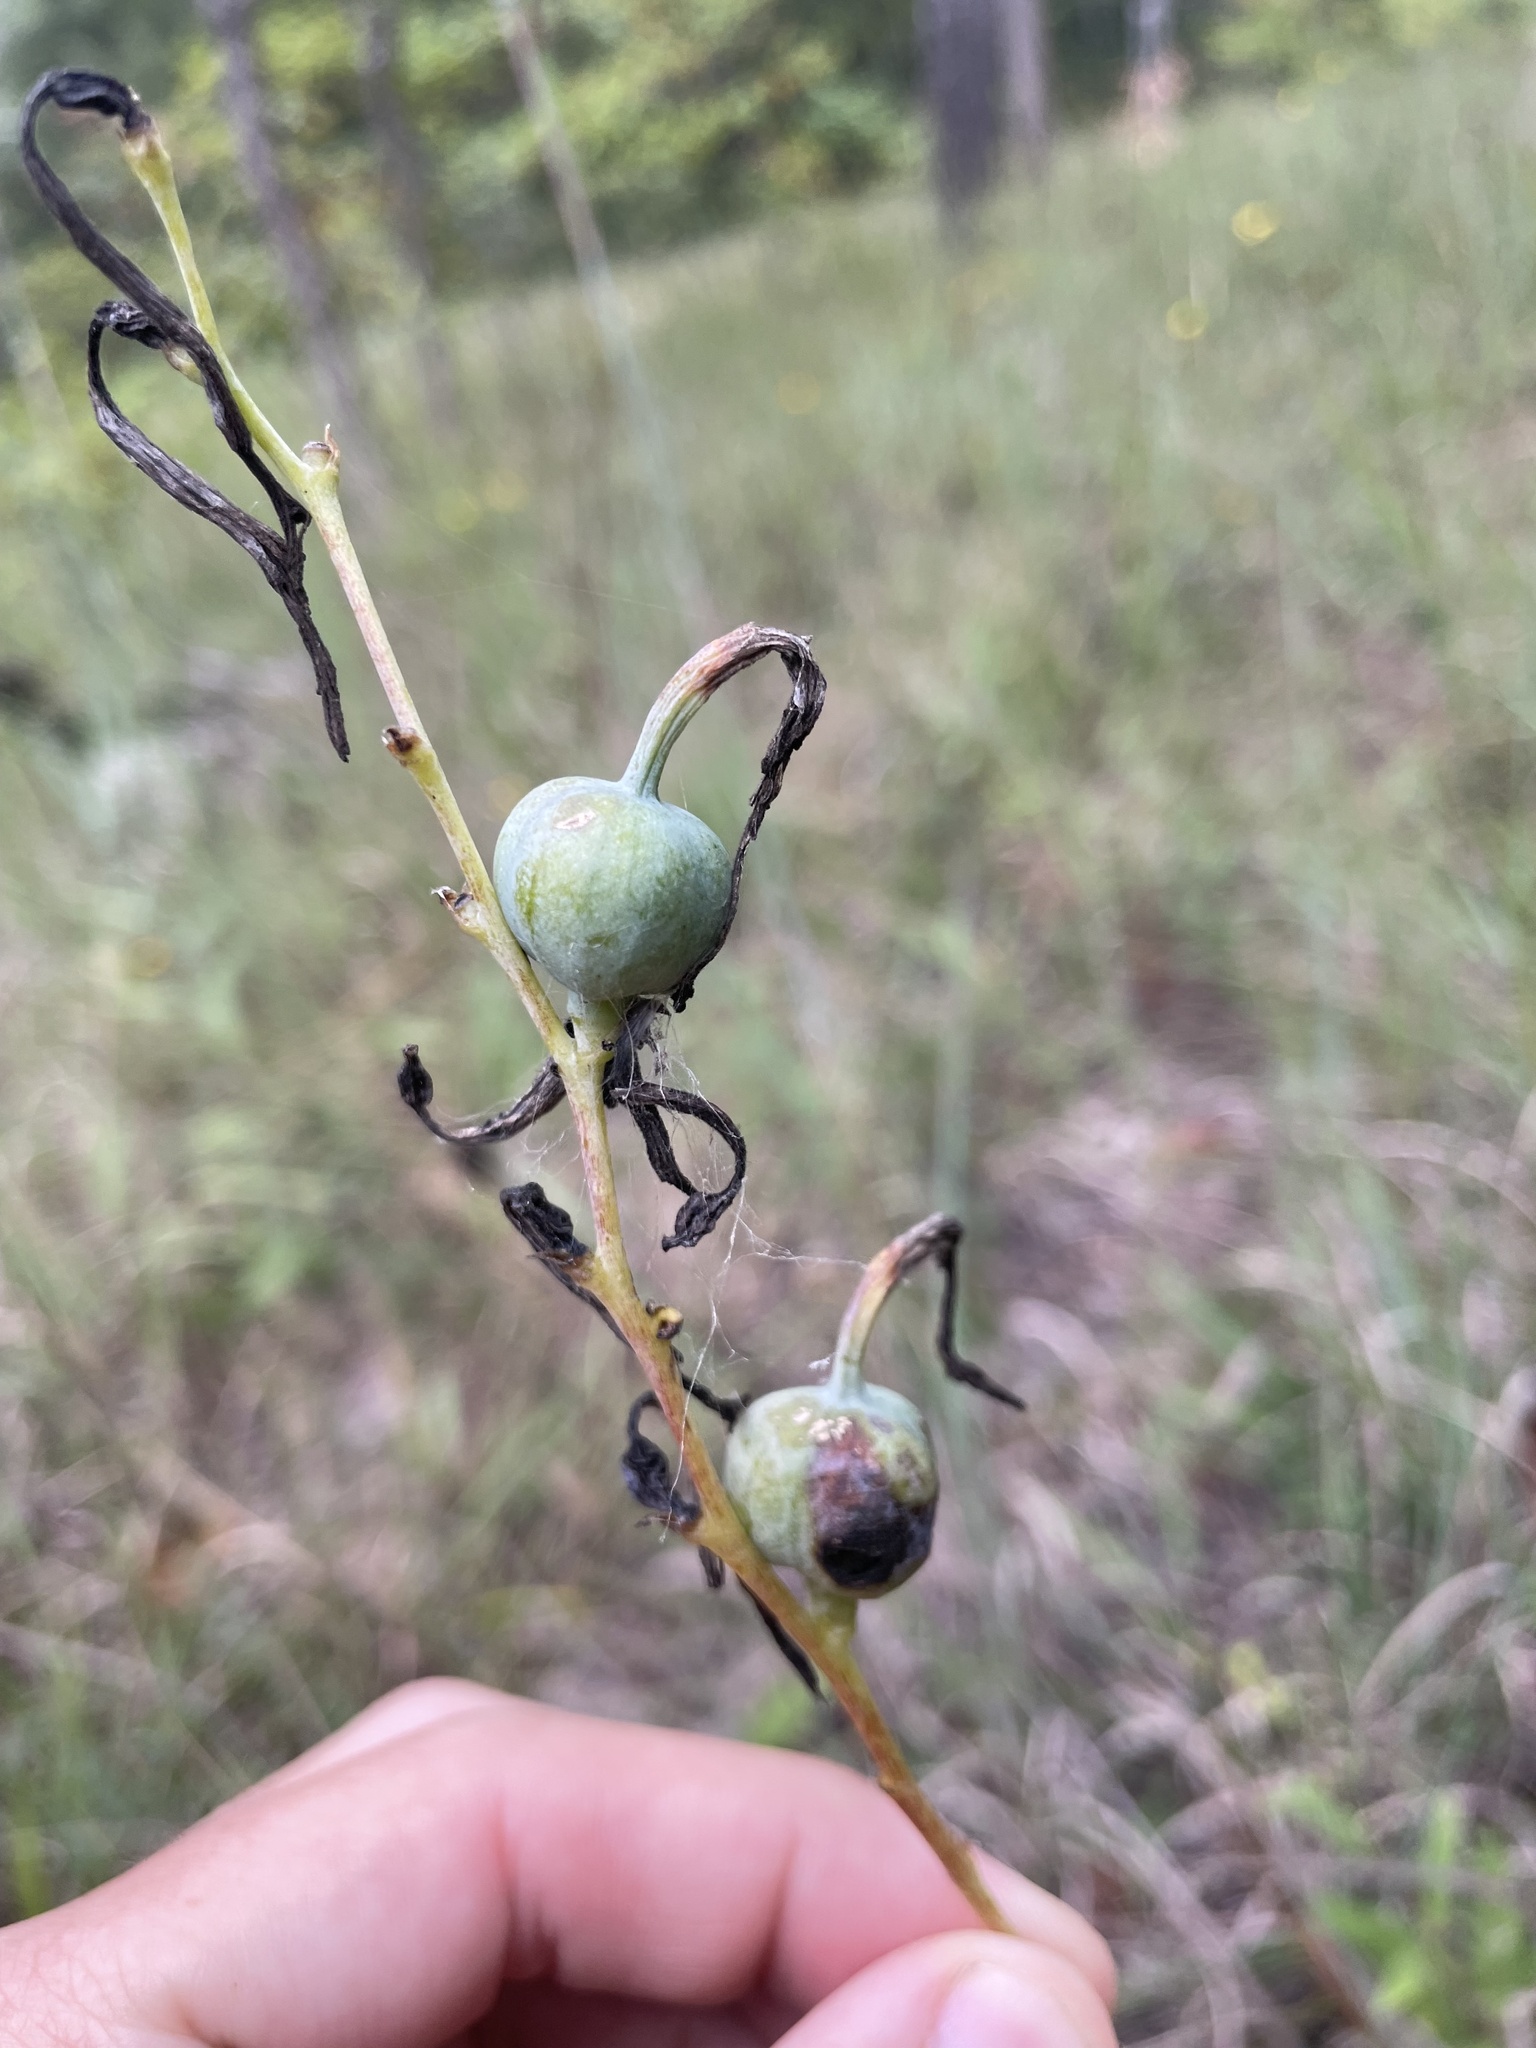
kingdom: Plantae
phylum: Tracheophyta
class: Liliopsida
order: Asparagales
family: Asparagaceae
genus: Agave
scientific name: Agave virginica
